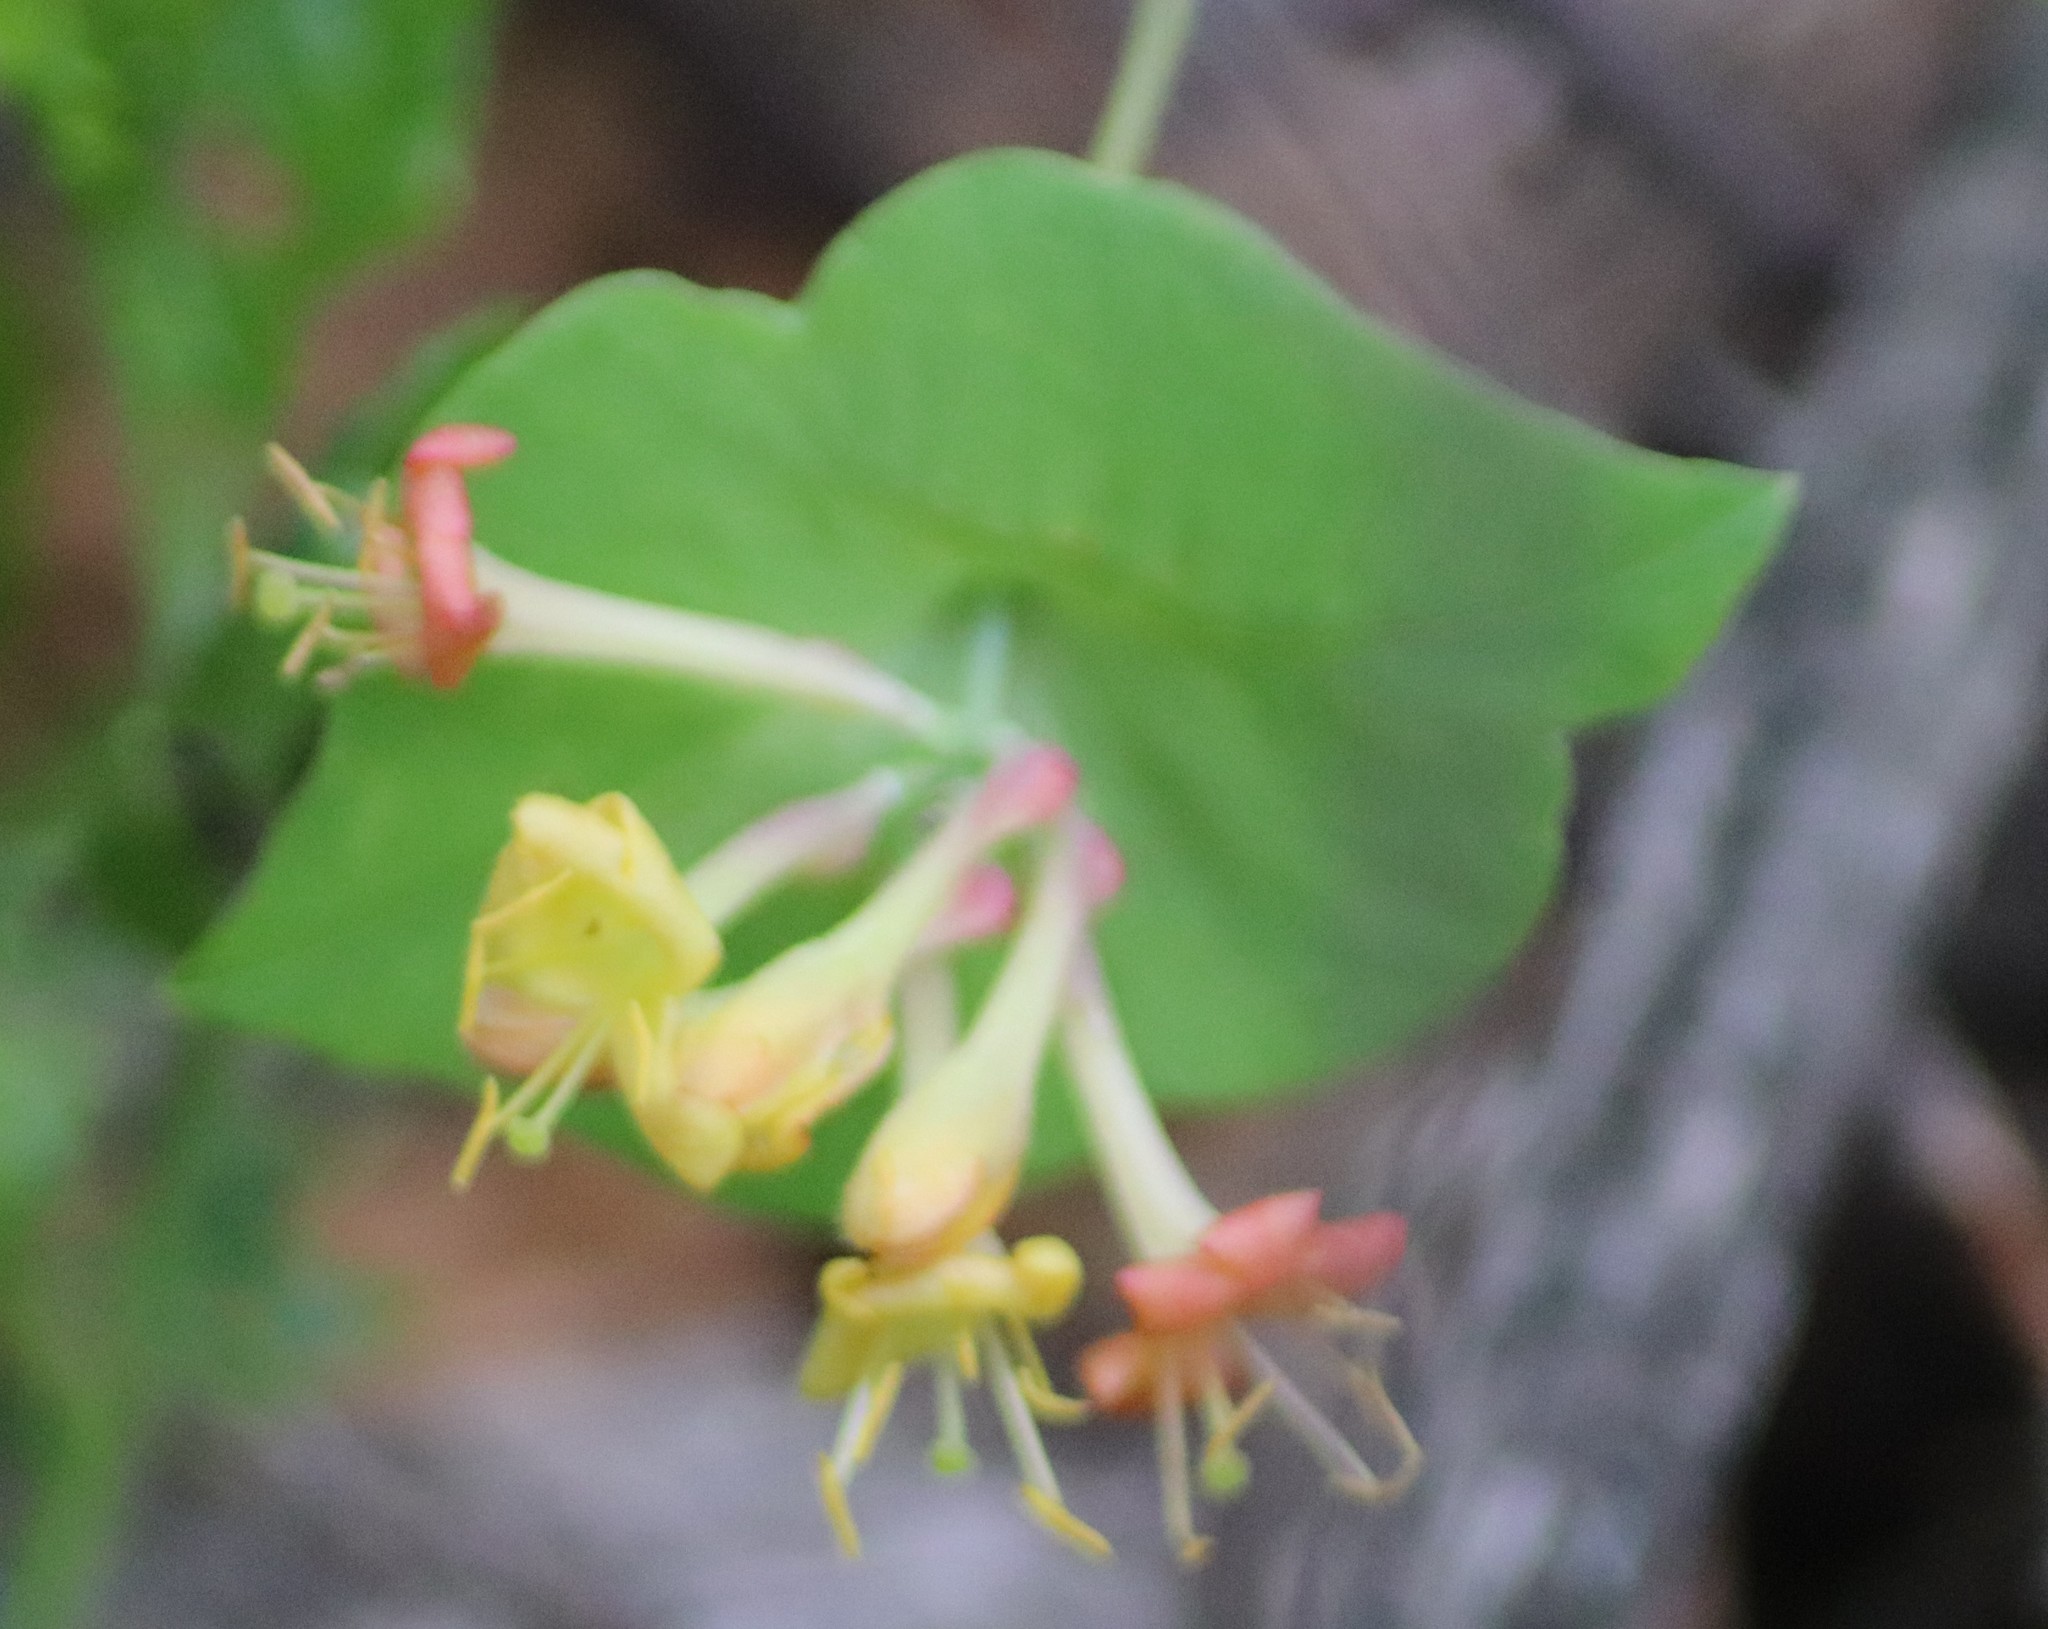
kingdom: Plantae
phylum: Tracheophyta
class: Magnoliopsida
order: Dipsacales
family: Caprifoliaceae
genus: Lonicera
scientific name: Lonicera dioica
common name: Limber honeysuckle
